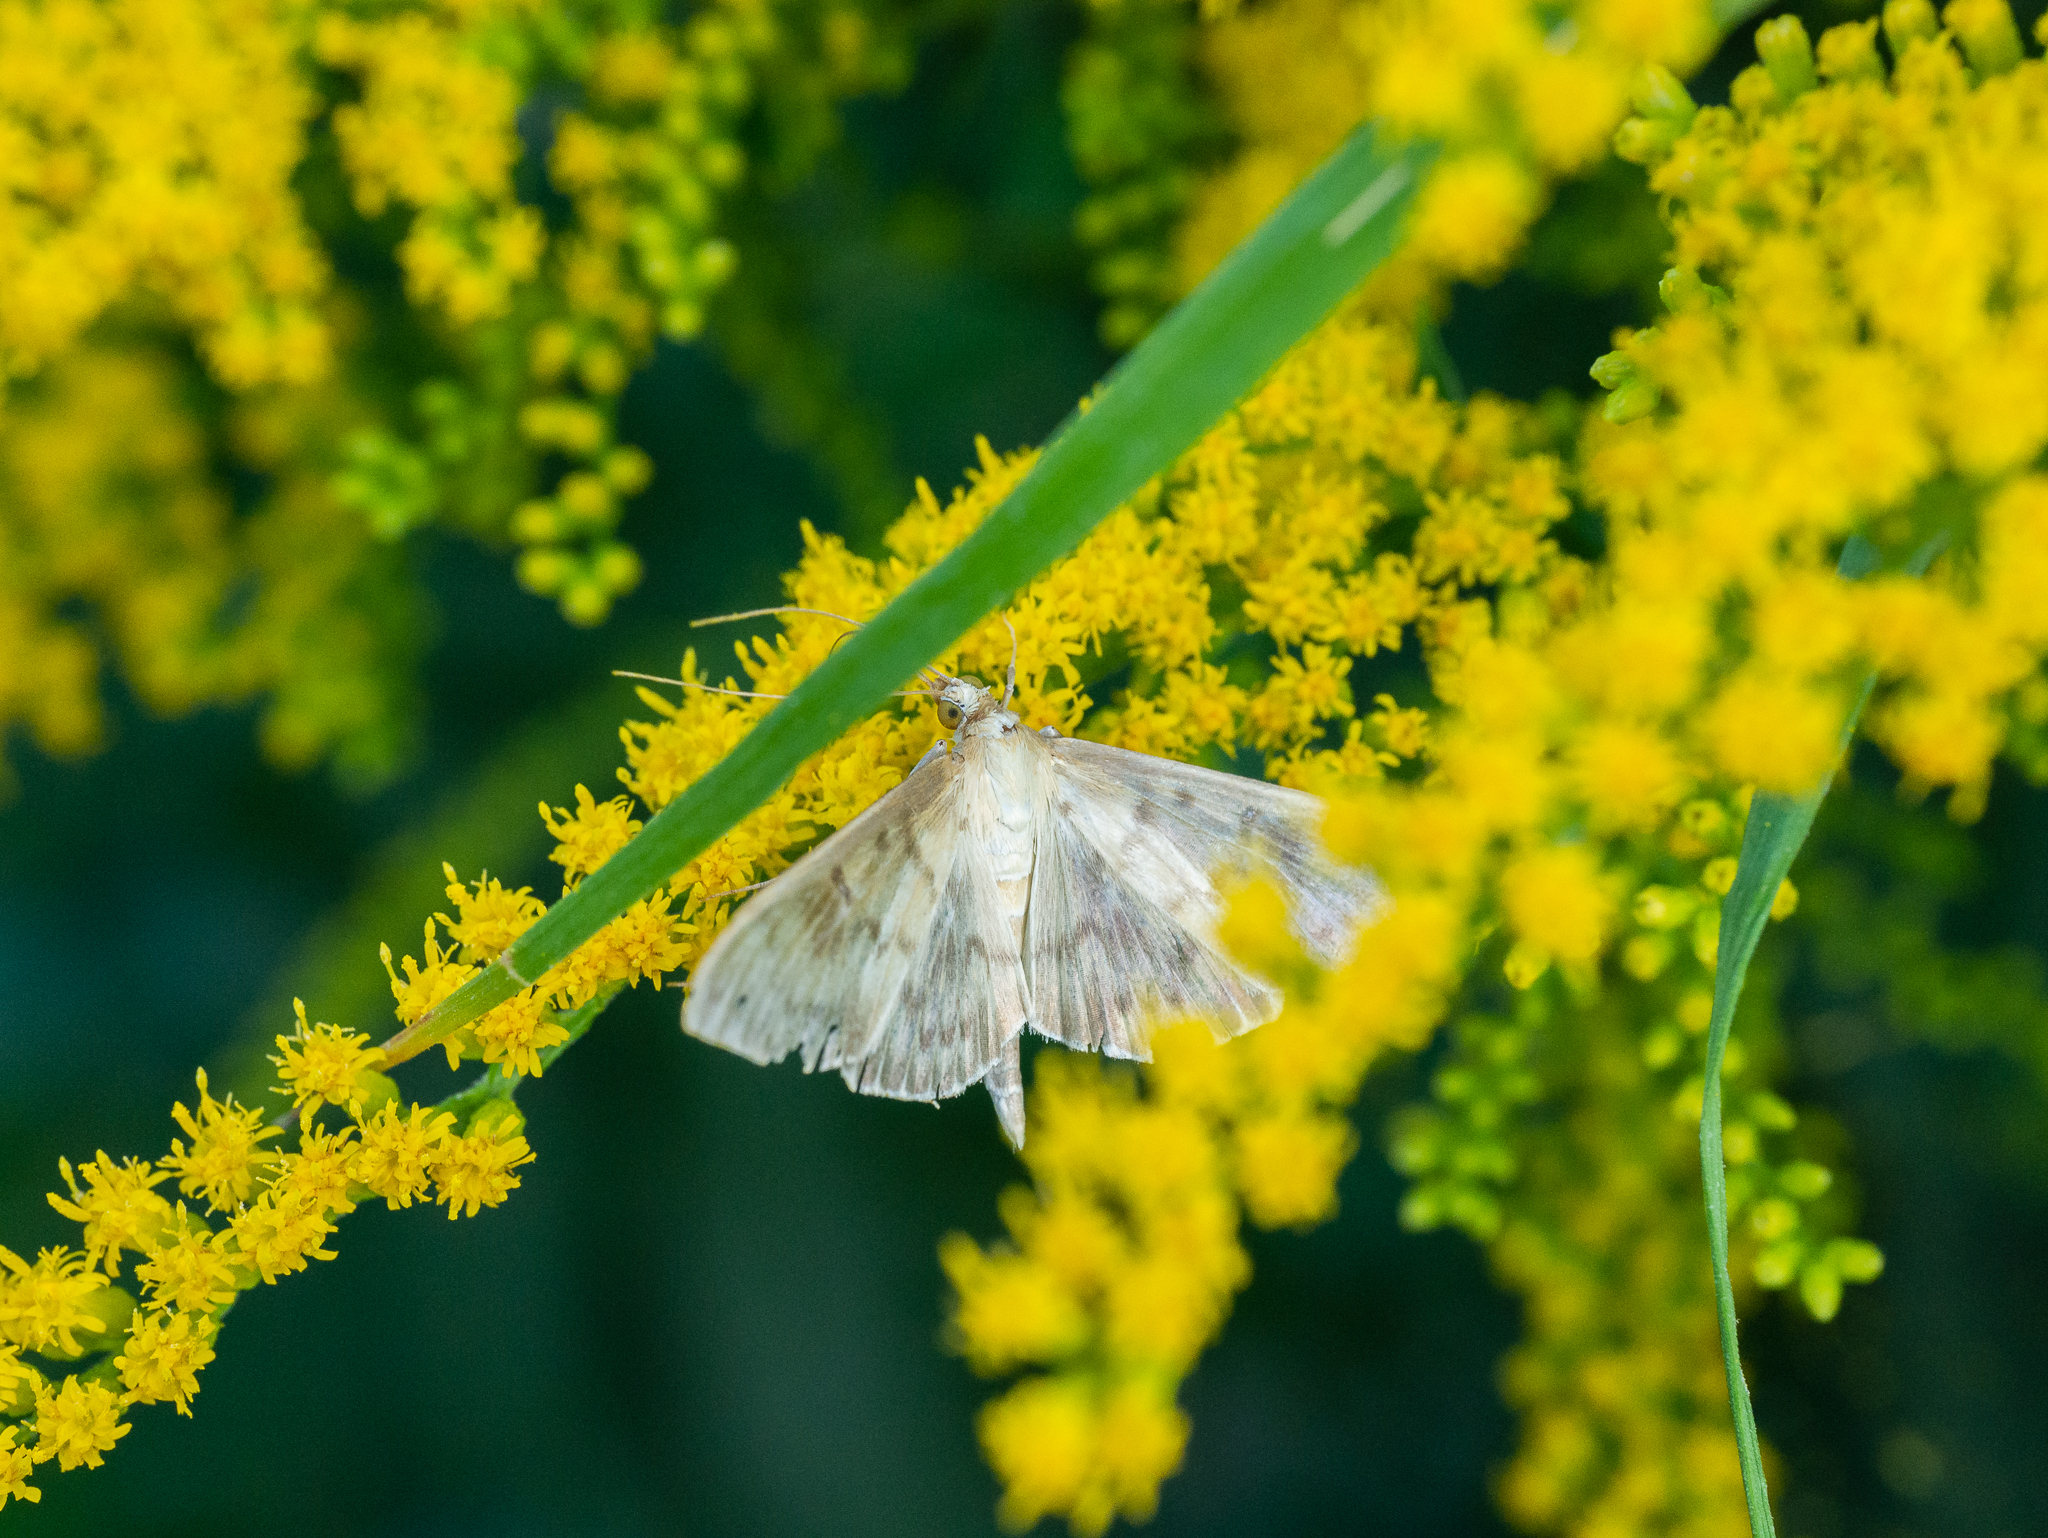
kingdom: Animalia
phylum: Arthropoda
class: Insecta
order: Lepidoptera
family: Crambidae
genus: Patania
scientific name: Patania ruralis
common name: Mother of pearl
